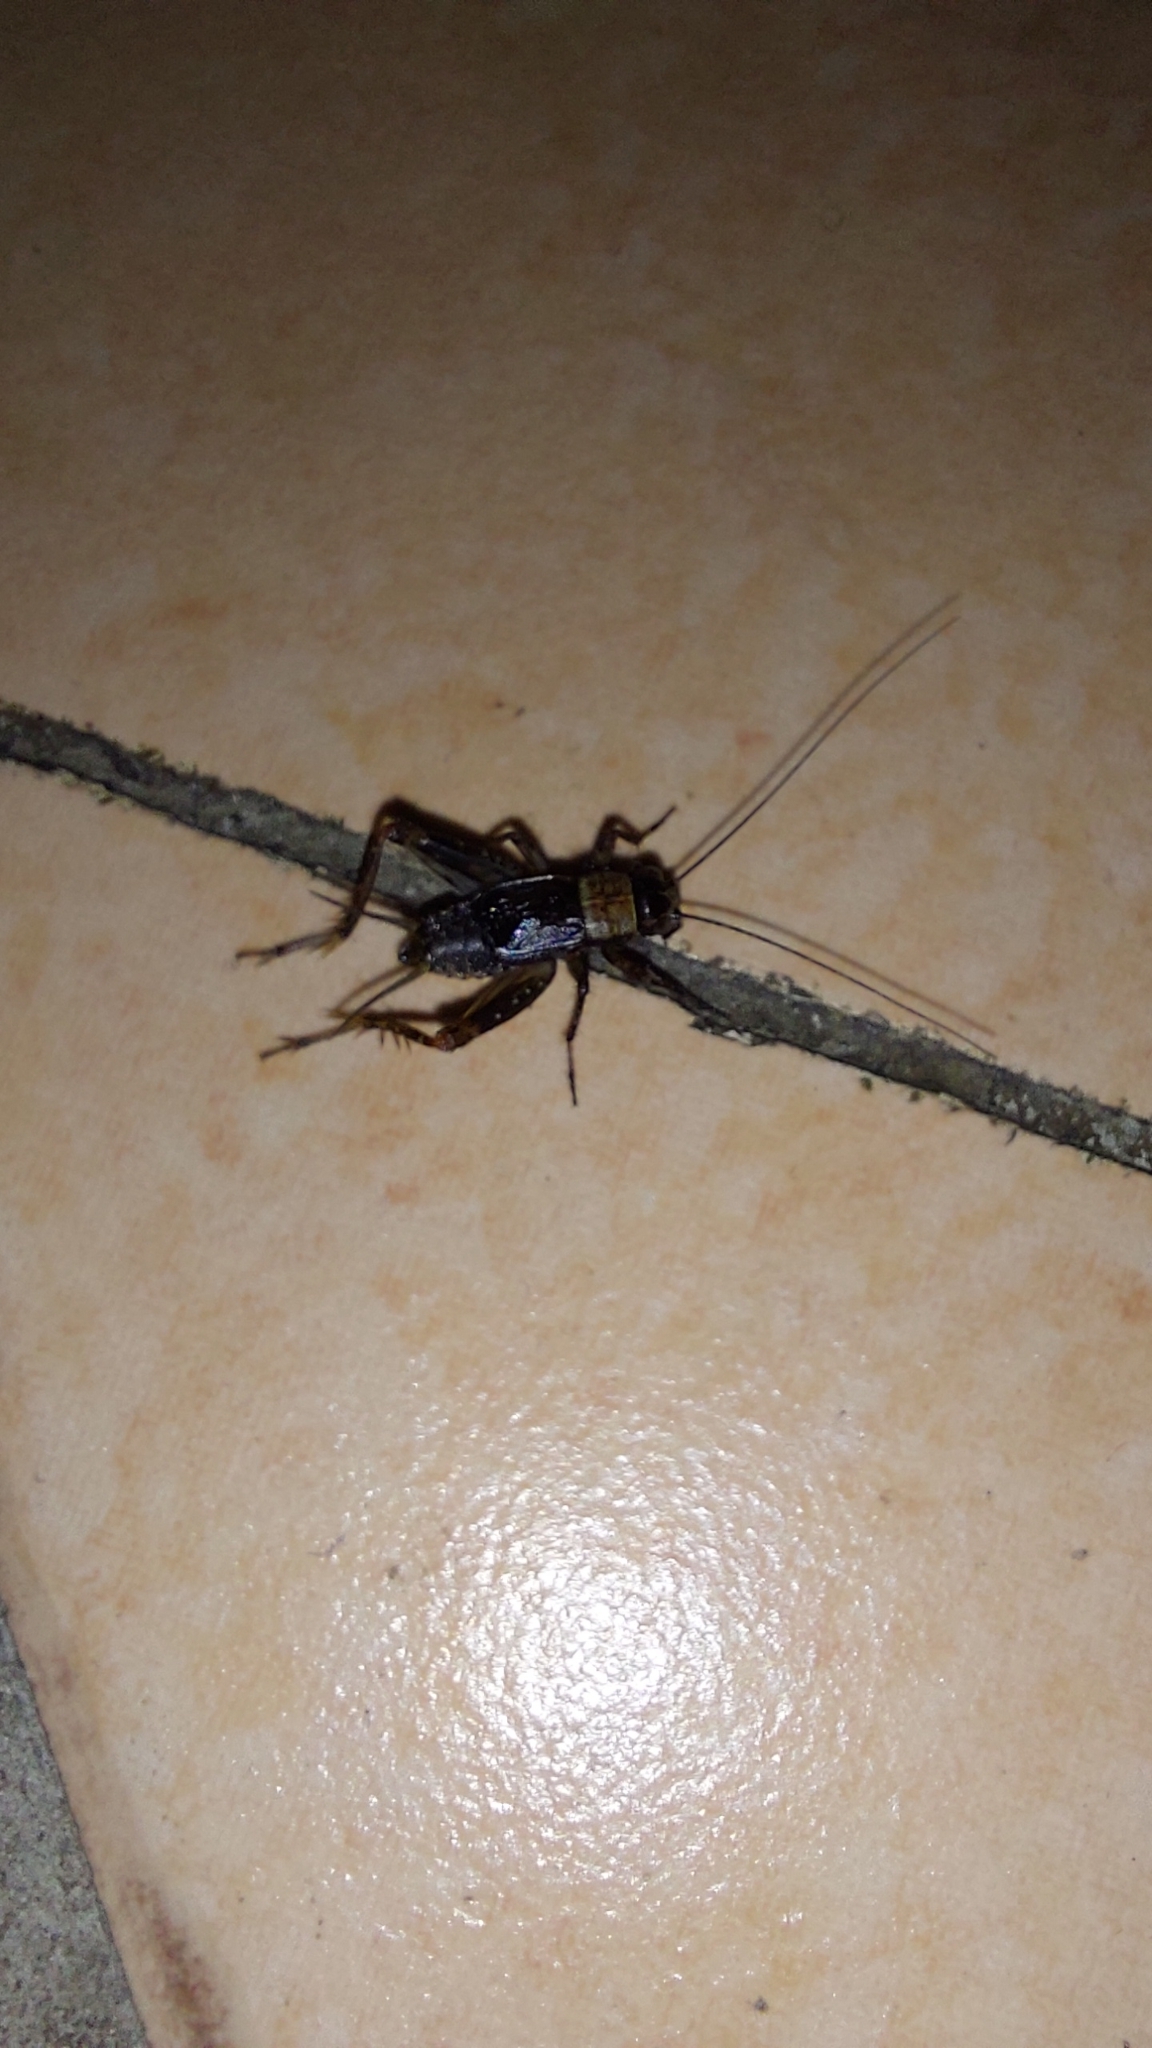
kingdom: Animalia
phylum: Arthropoda
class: Insecta
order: Orthoptera
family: Trigonidiidae
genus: Nemobius
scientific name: Nemobius sylvestris
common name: Wood-cricket
